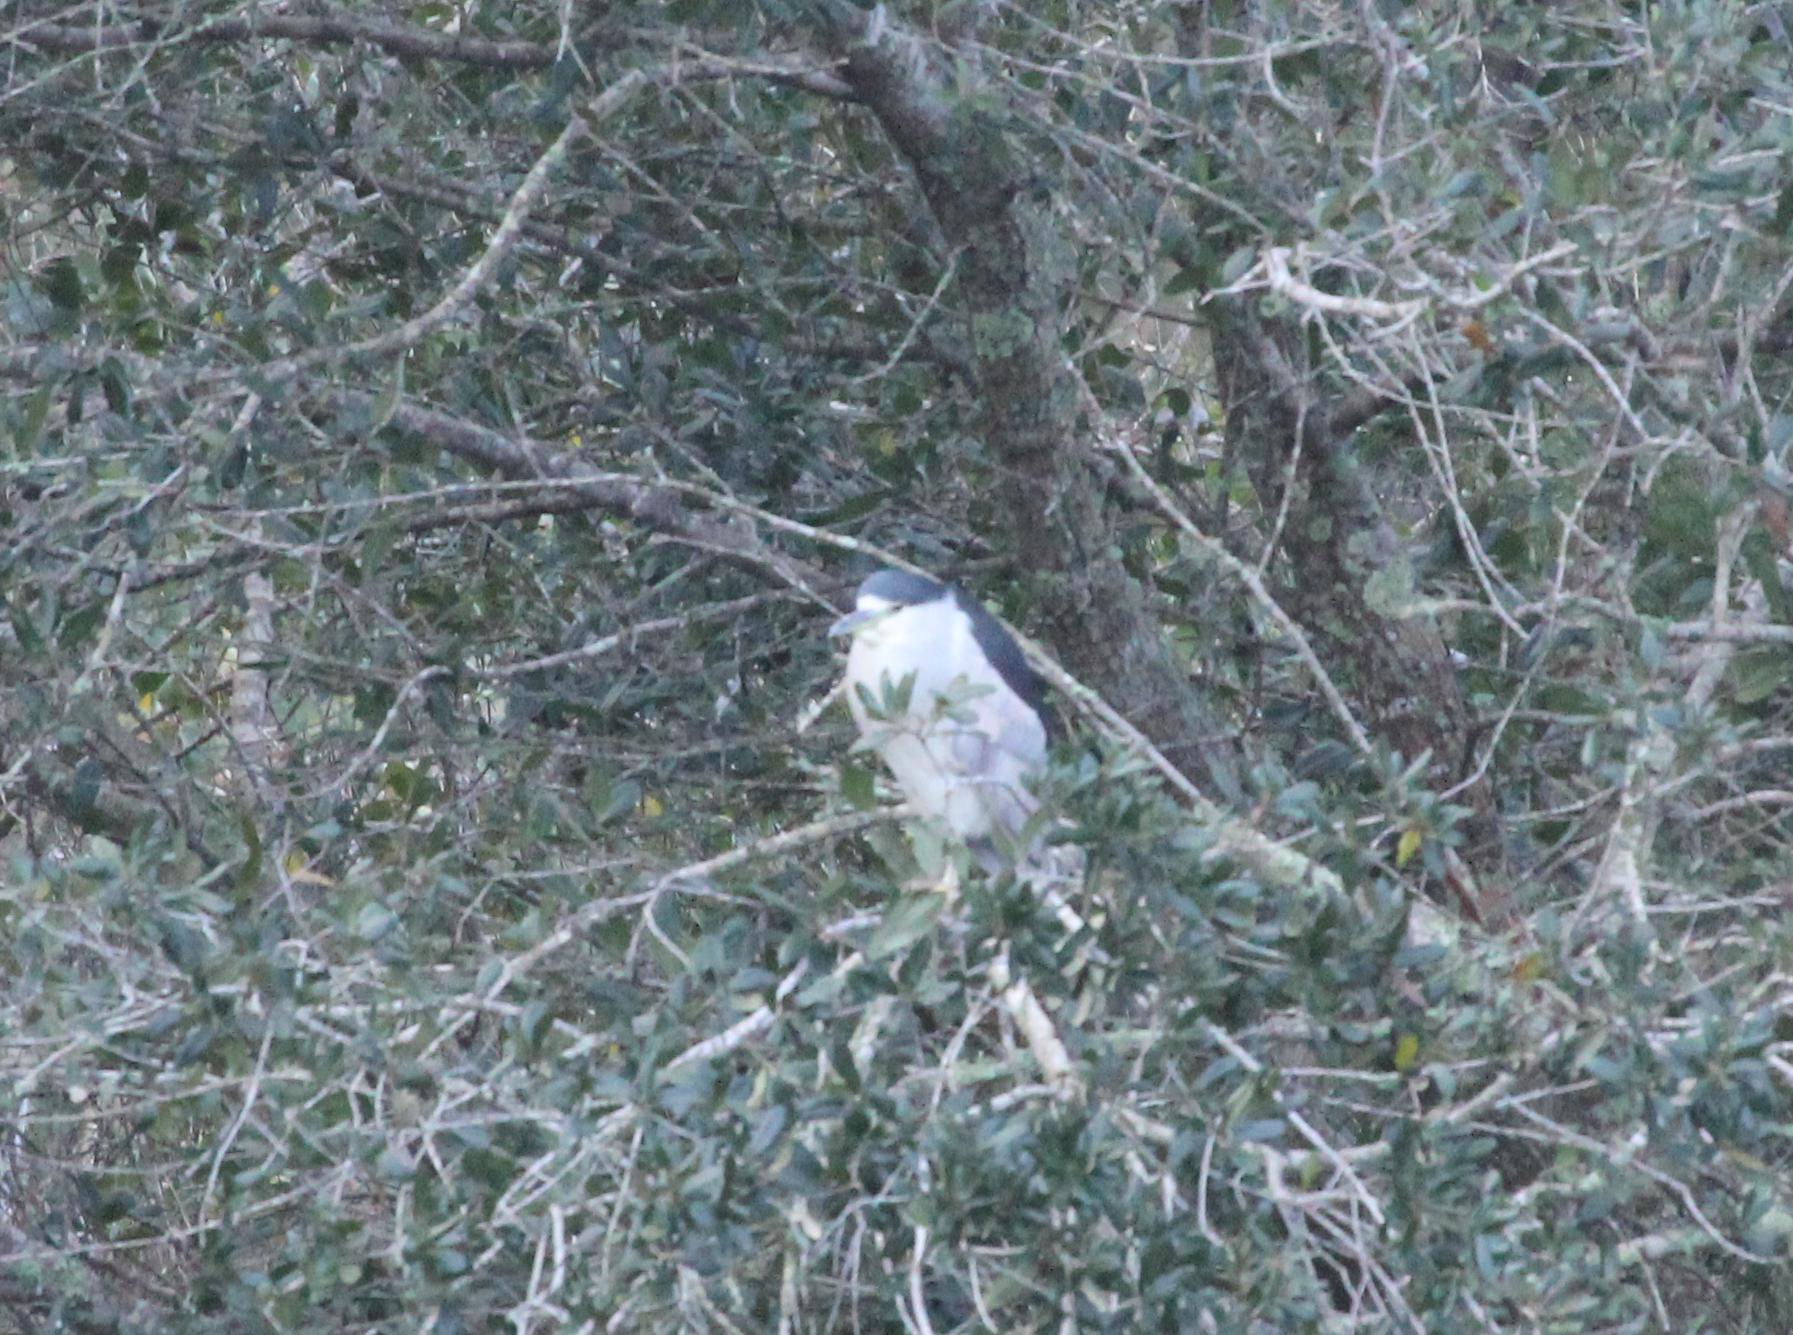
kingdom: Animalia
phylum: Chordata
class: Aves
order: Pelecaniformes
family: Ardeidae
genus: Nycticorax
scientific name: Nycticorax nycticorax
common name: Black-crowned night heron
